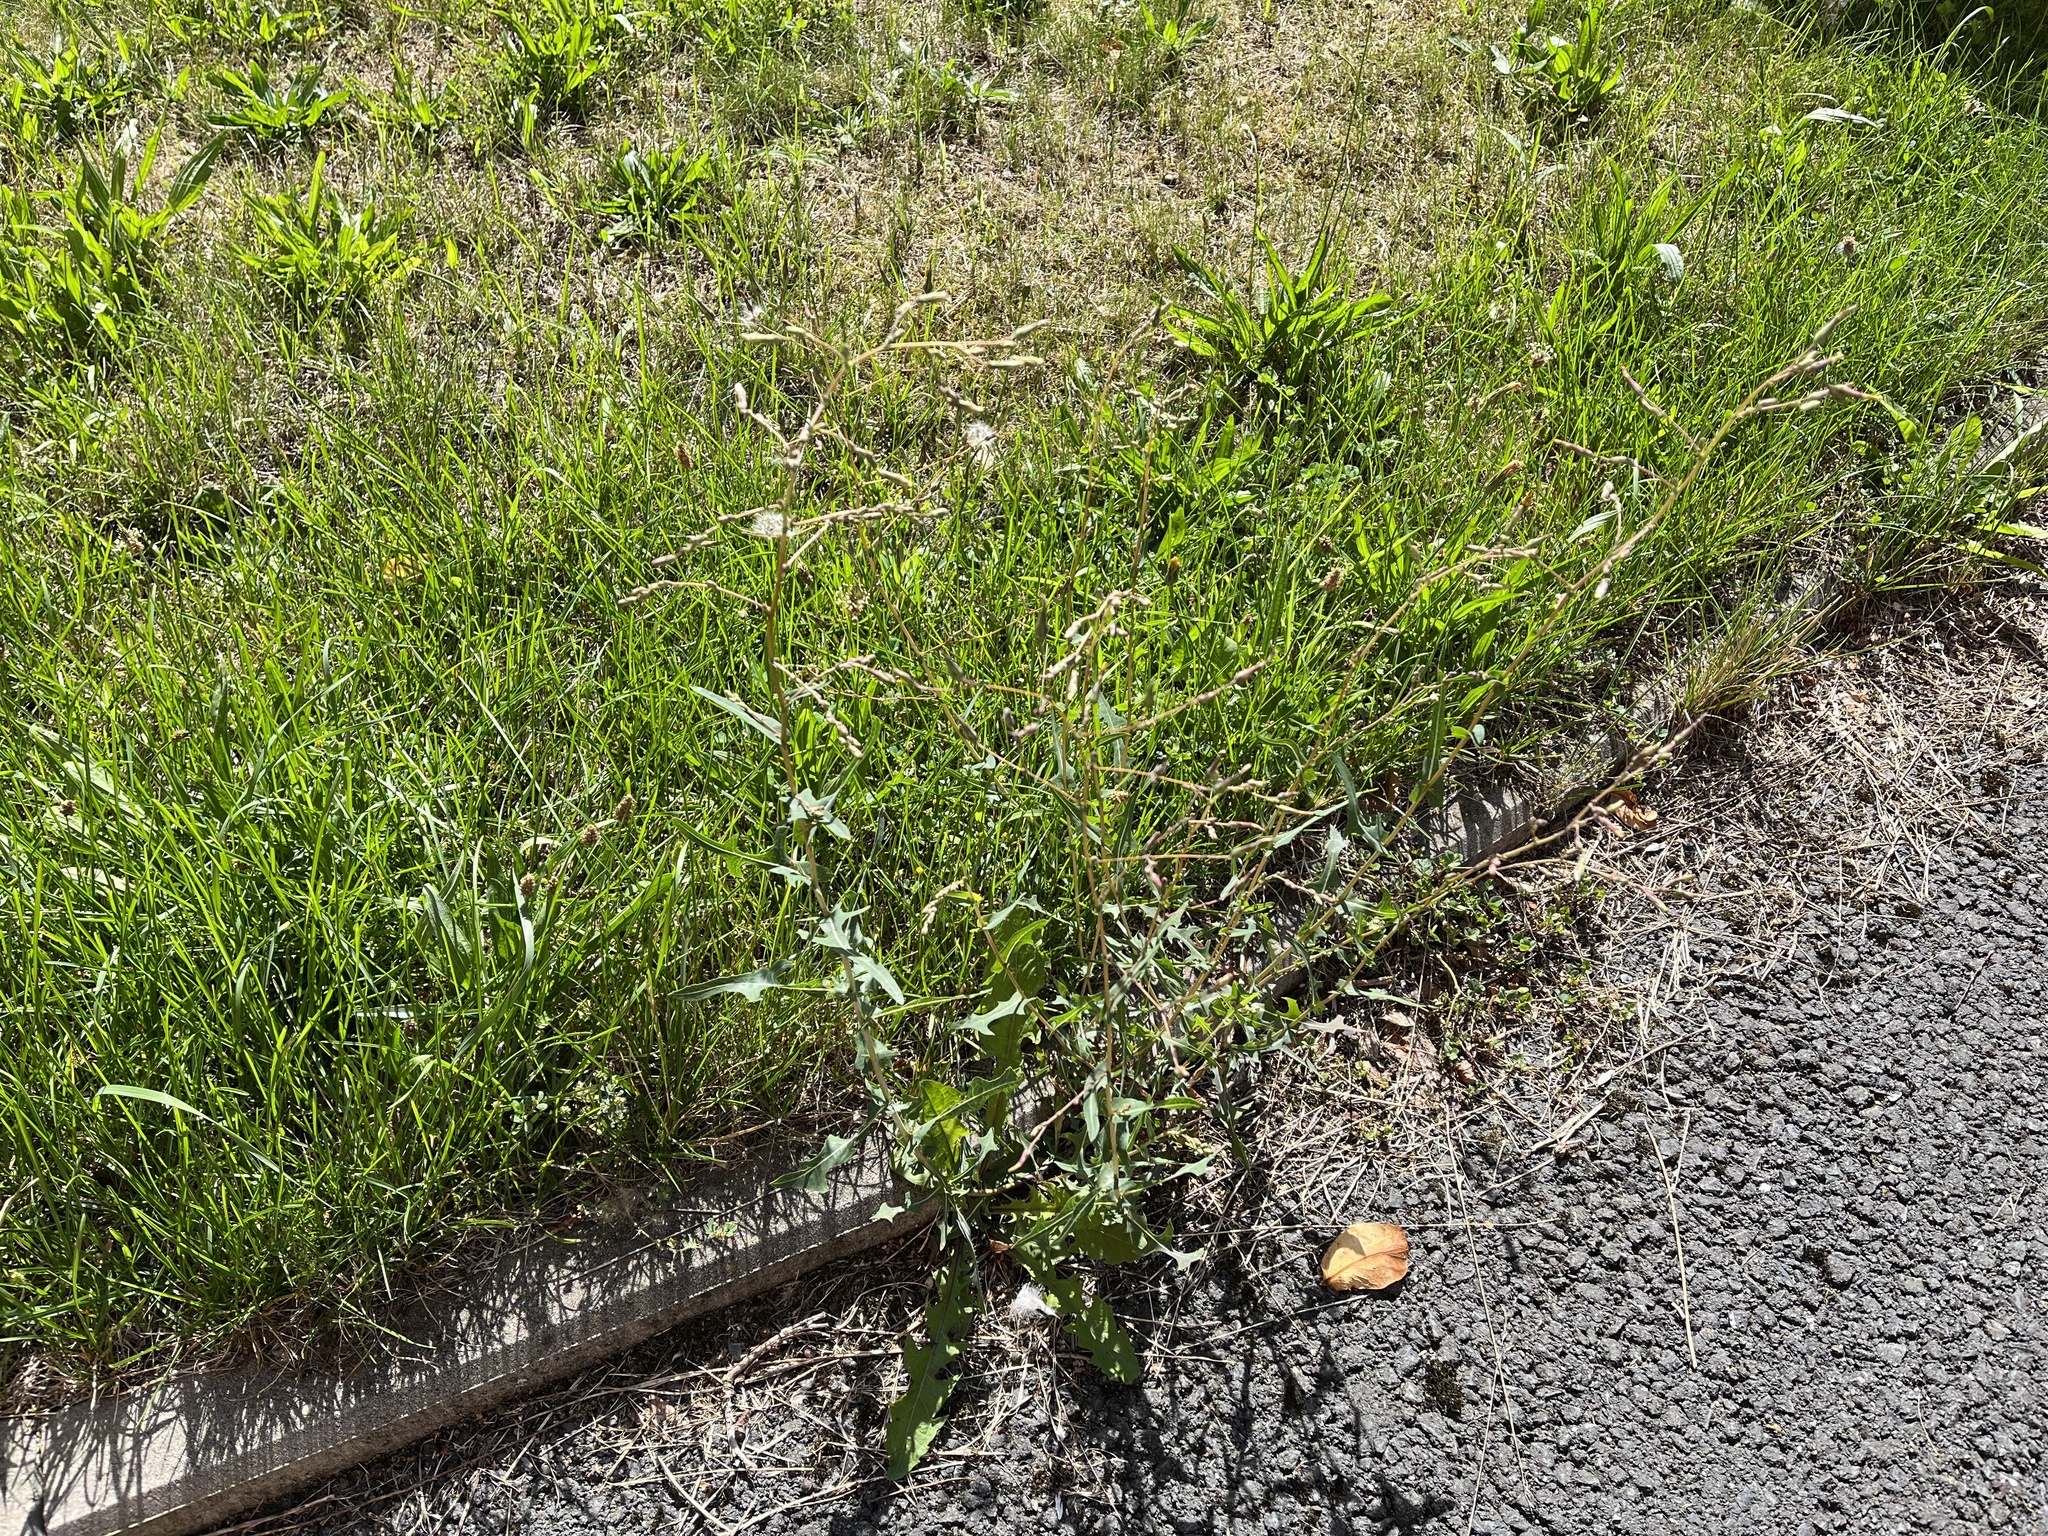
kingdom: Plantae
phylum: Tracheophyta
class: Magnoliopsida
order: Asterales
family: Asteraceae
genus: Lactuca
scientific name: Lactuca serriola
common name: Prickly lettuce
